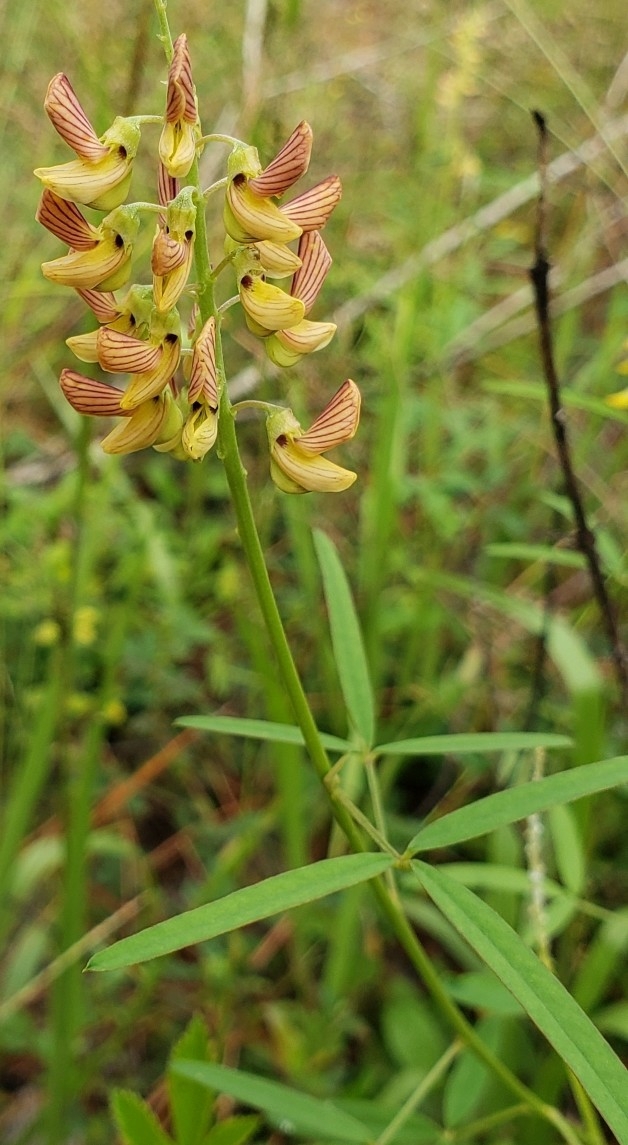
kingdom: Plantae
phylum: Tracheophyta
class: Magnoliopsida
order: Fabales
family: Fabaceae
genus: Crotalaria
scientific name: Crotalaria lanceolata
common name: Lanceleaf rattlebox
